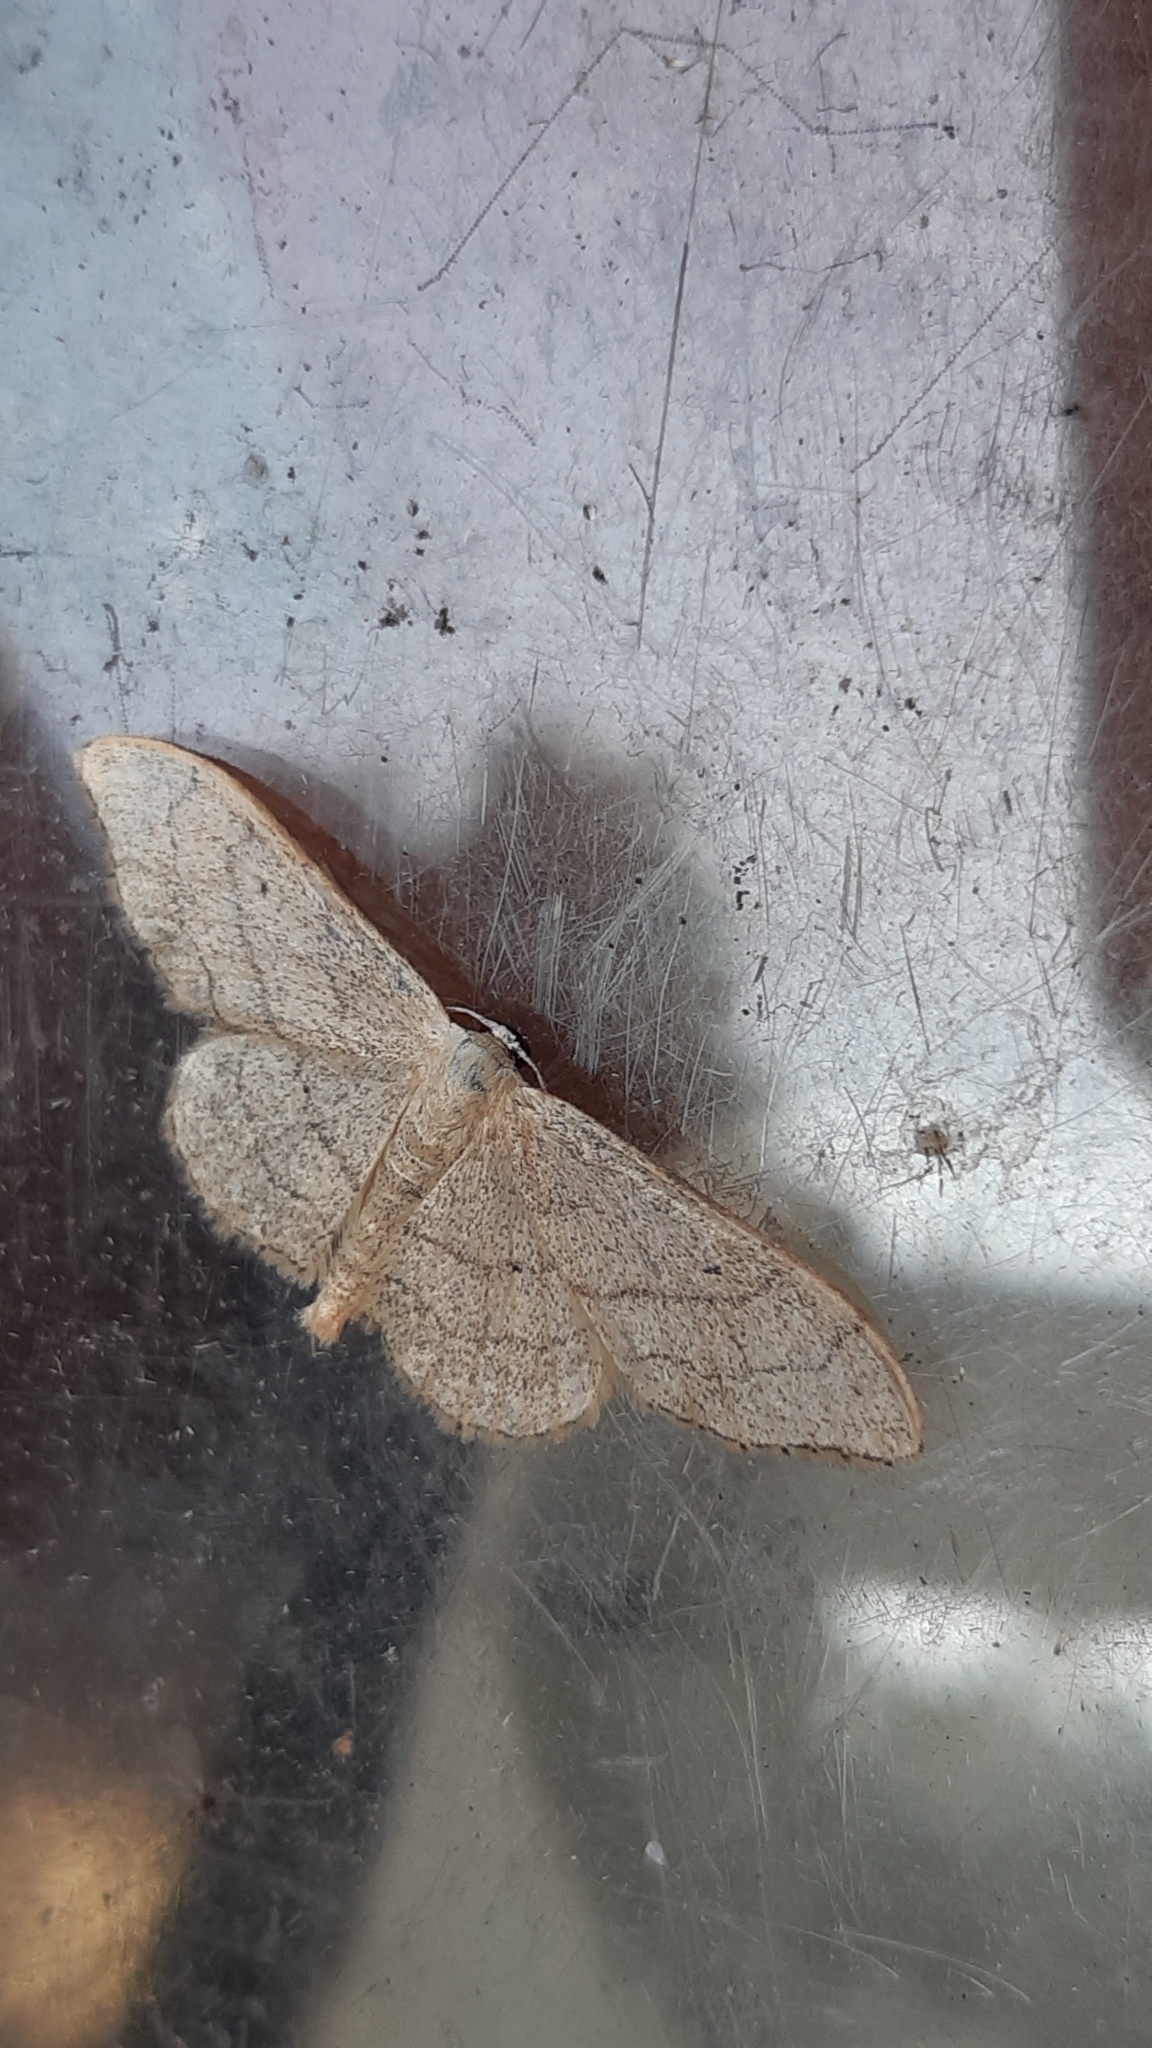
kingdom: Animalia
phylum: Arthropoda
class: Insecta
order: Lepidoptera
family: Geometridae
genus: Idaea
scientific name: Idaea aversata
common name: Riband wave
